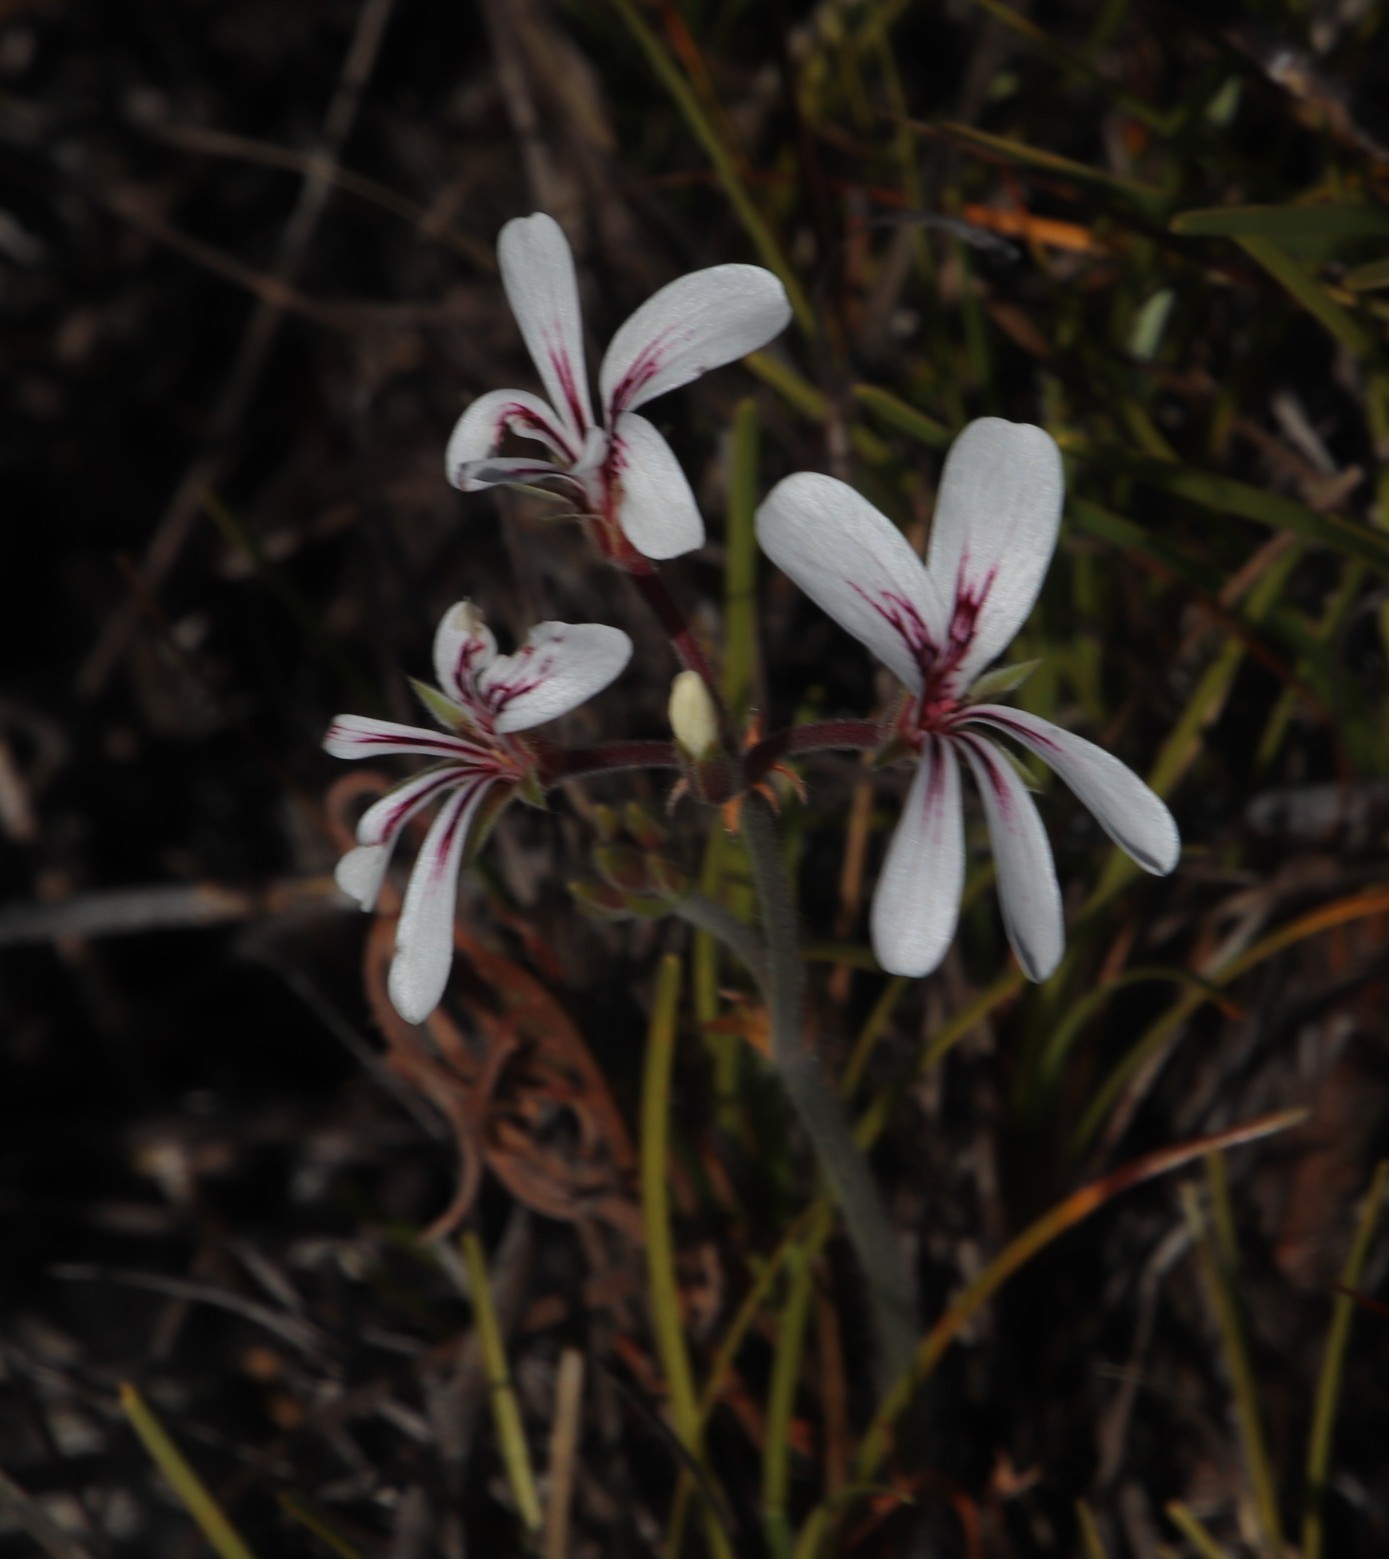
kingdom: Plantae
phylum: Tracheophyta
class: Magnoliopsida
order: Geraniales
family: Geraniaceae
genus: Pelargonium
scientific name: Pelargonium proliferum
